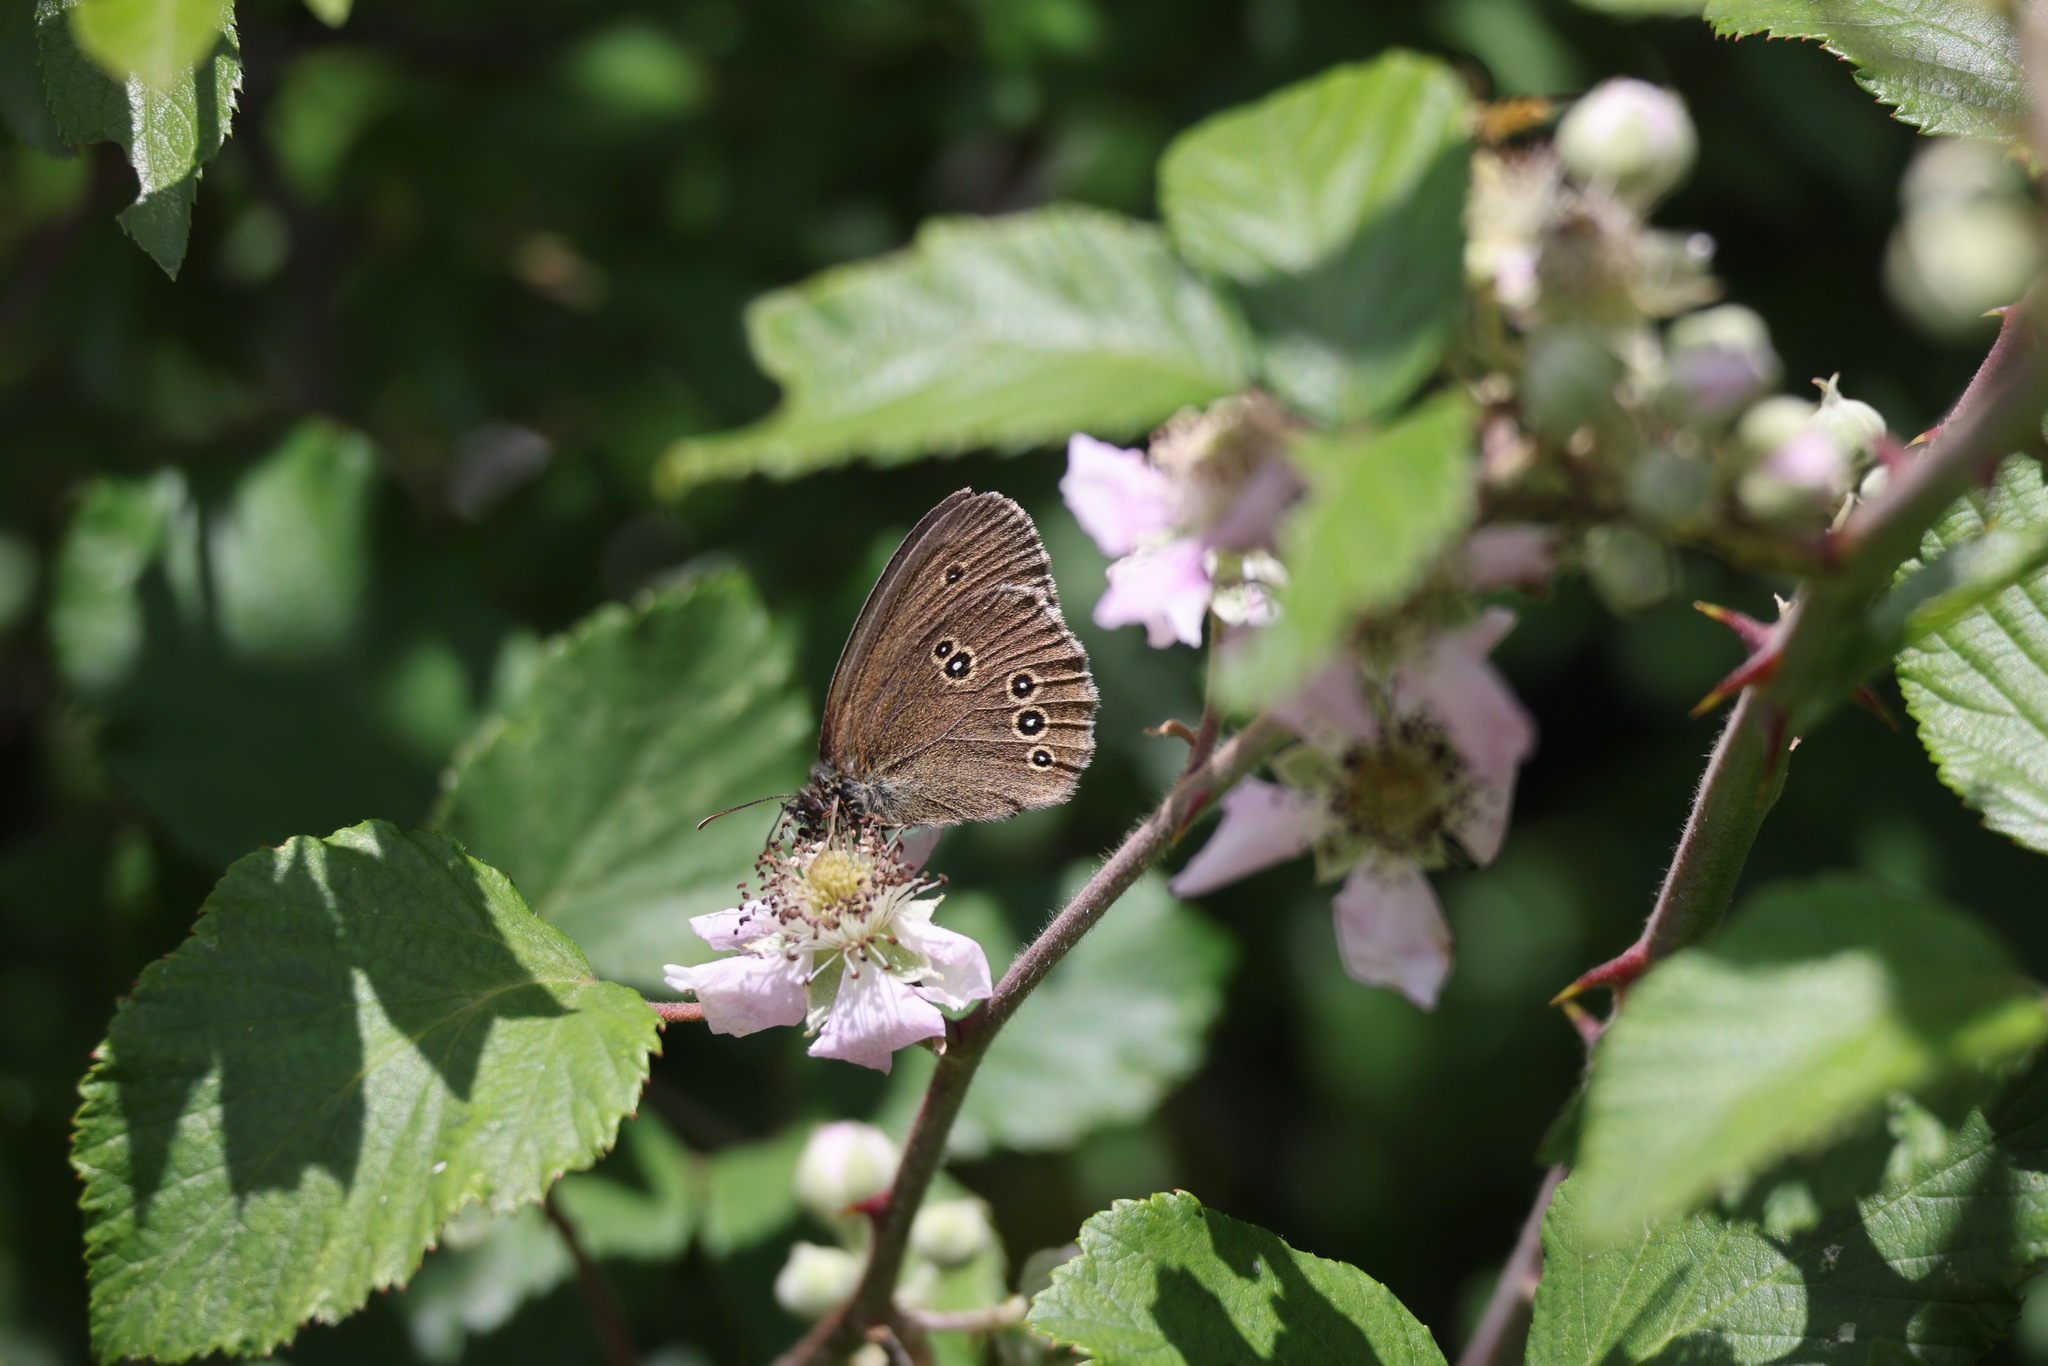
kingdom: Animalia
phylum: Arthropoda
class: Insecta
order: Lepidoptera
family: Nymphalidae
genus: Aphantopus
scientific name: Aphantopus hyperantus
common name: Ringlet
